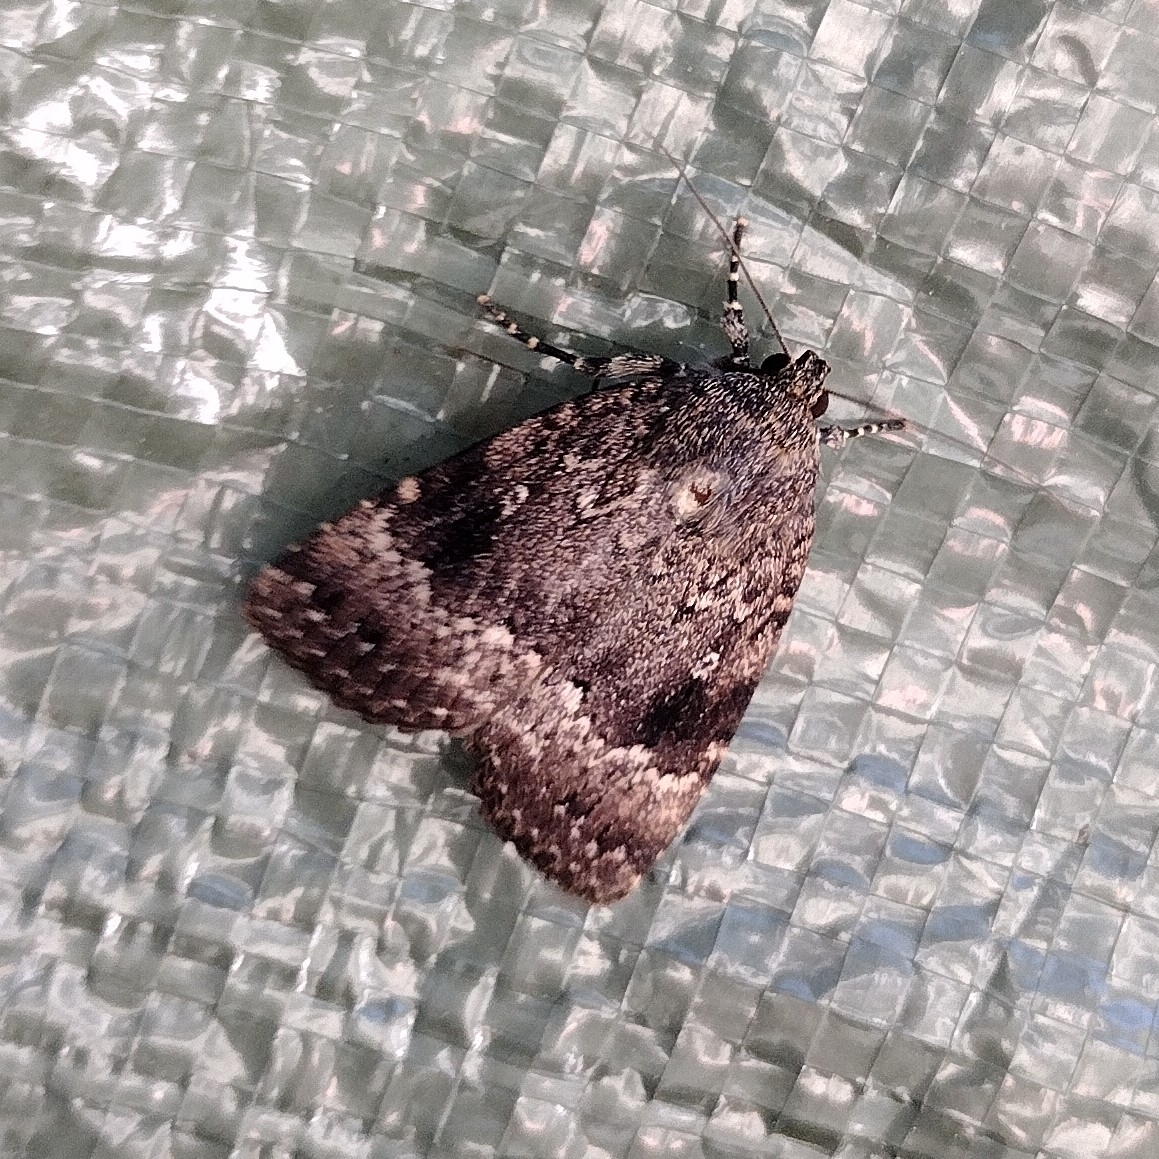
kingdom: Animalia
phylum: Arthropoda
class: Insecta
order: Lepidoptera
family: Noctuidae
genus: Amphipyra
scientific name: Amphipyra pyramidea
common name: Copper underwing
